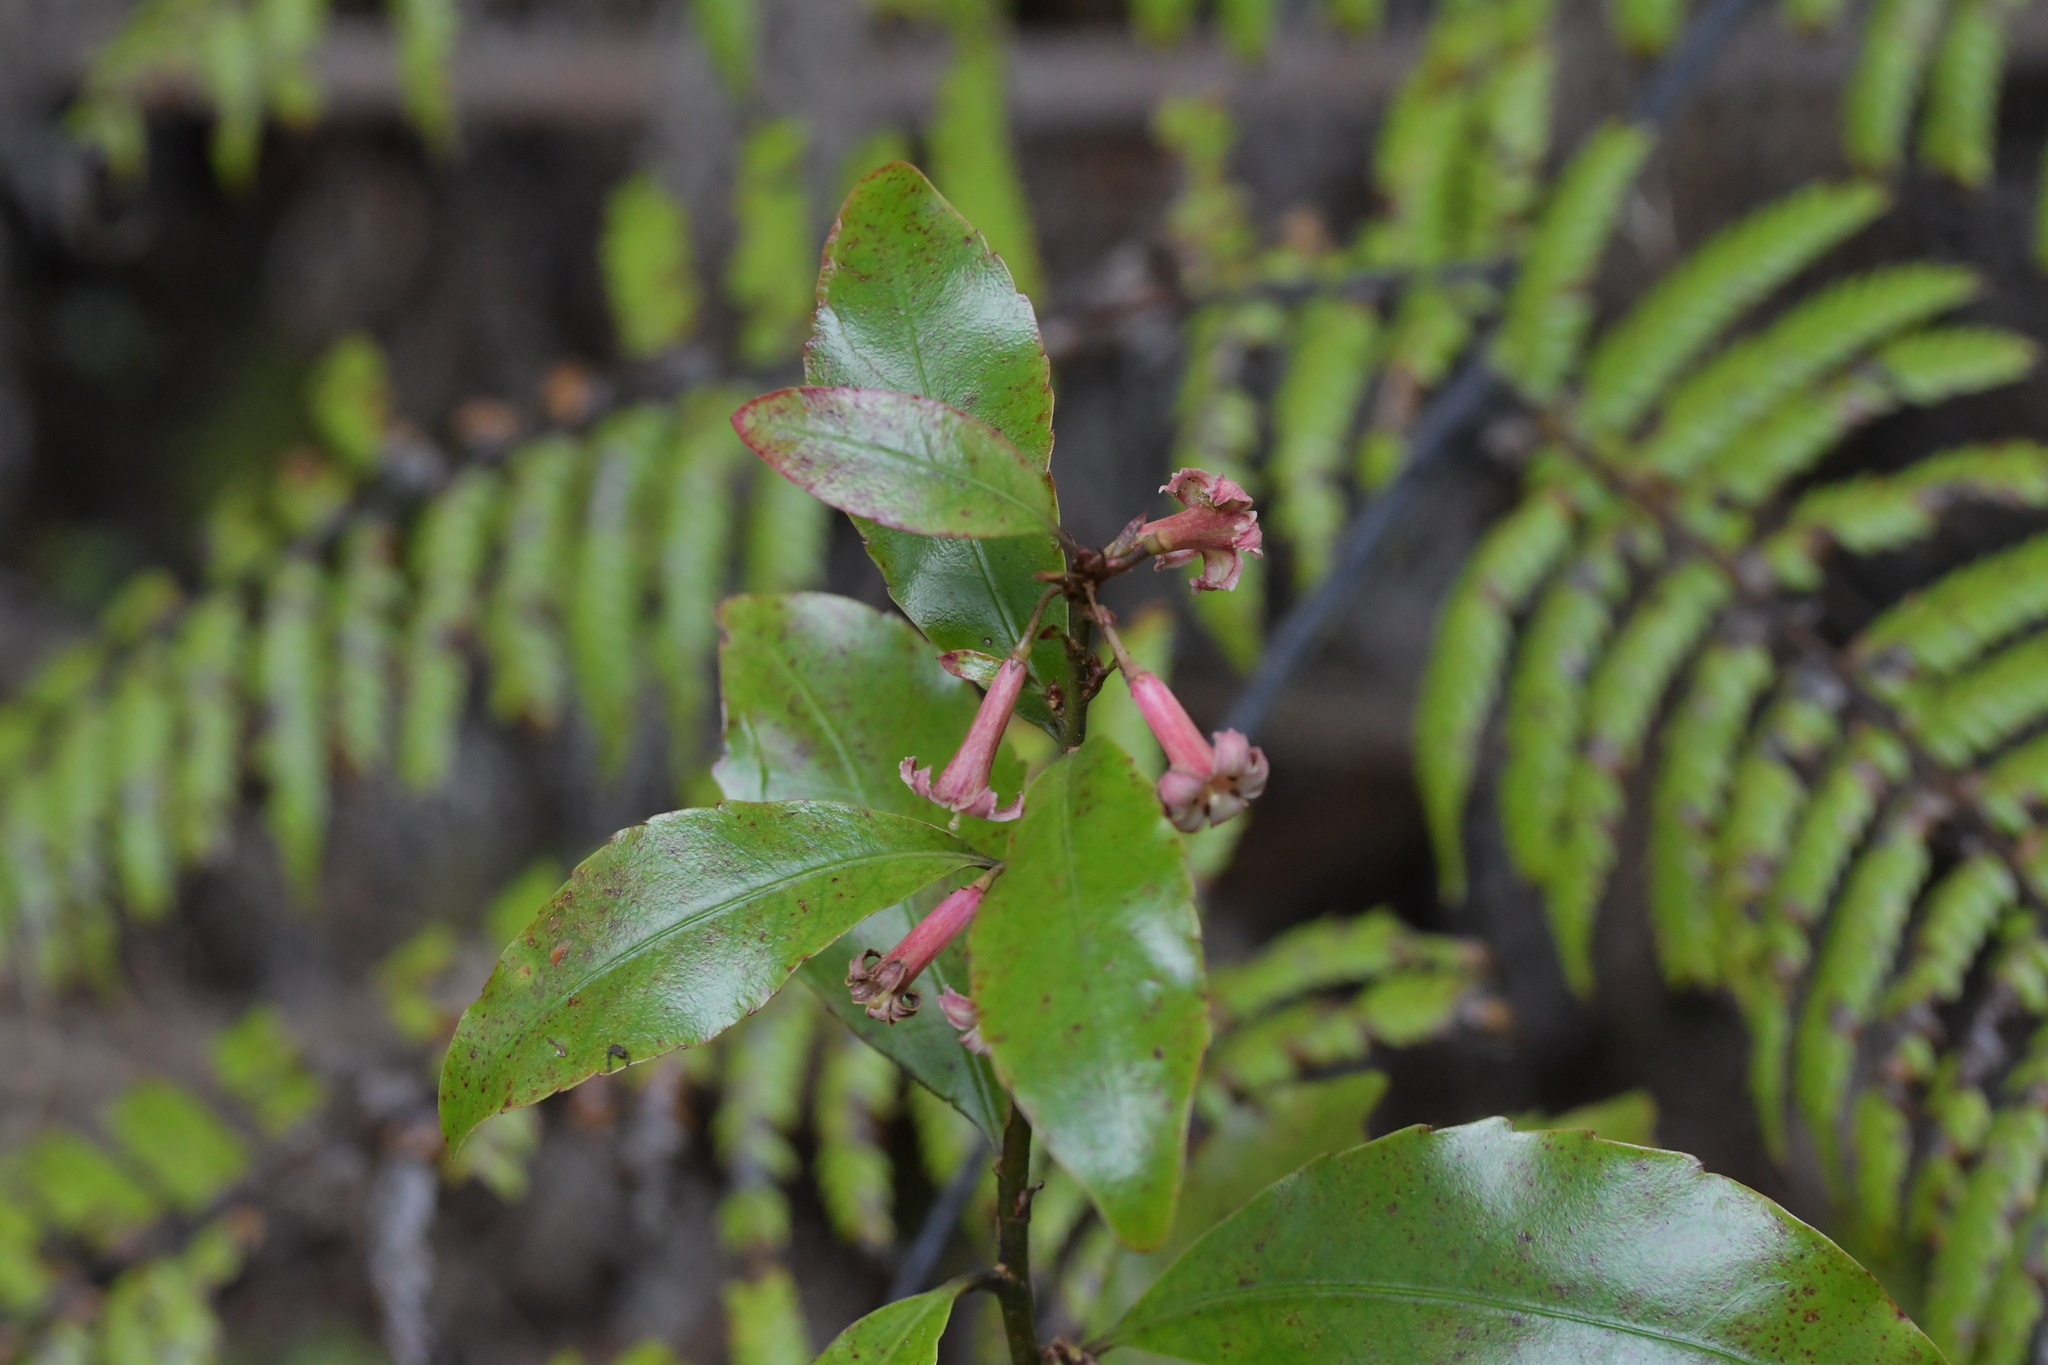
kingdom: Plantae
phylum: Tracheophyta
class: Magnoliopsida
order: Asterales
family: Alseuosmiaceae
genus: Alseuosmia
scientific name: Alseuosmia banksii
